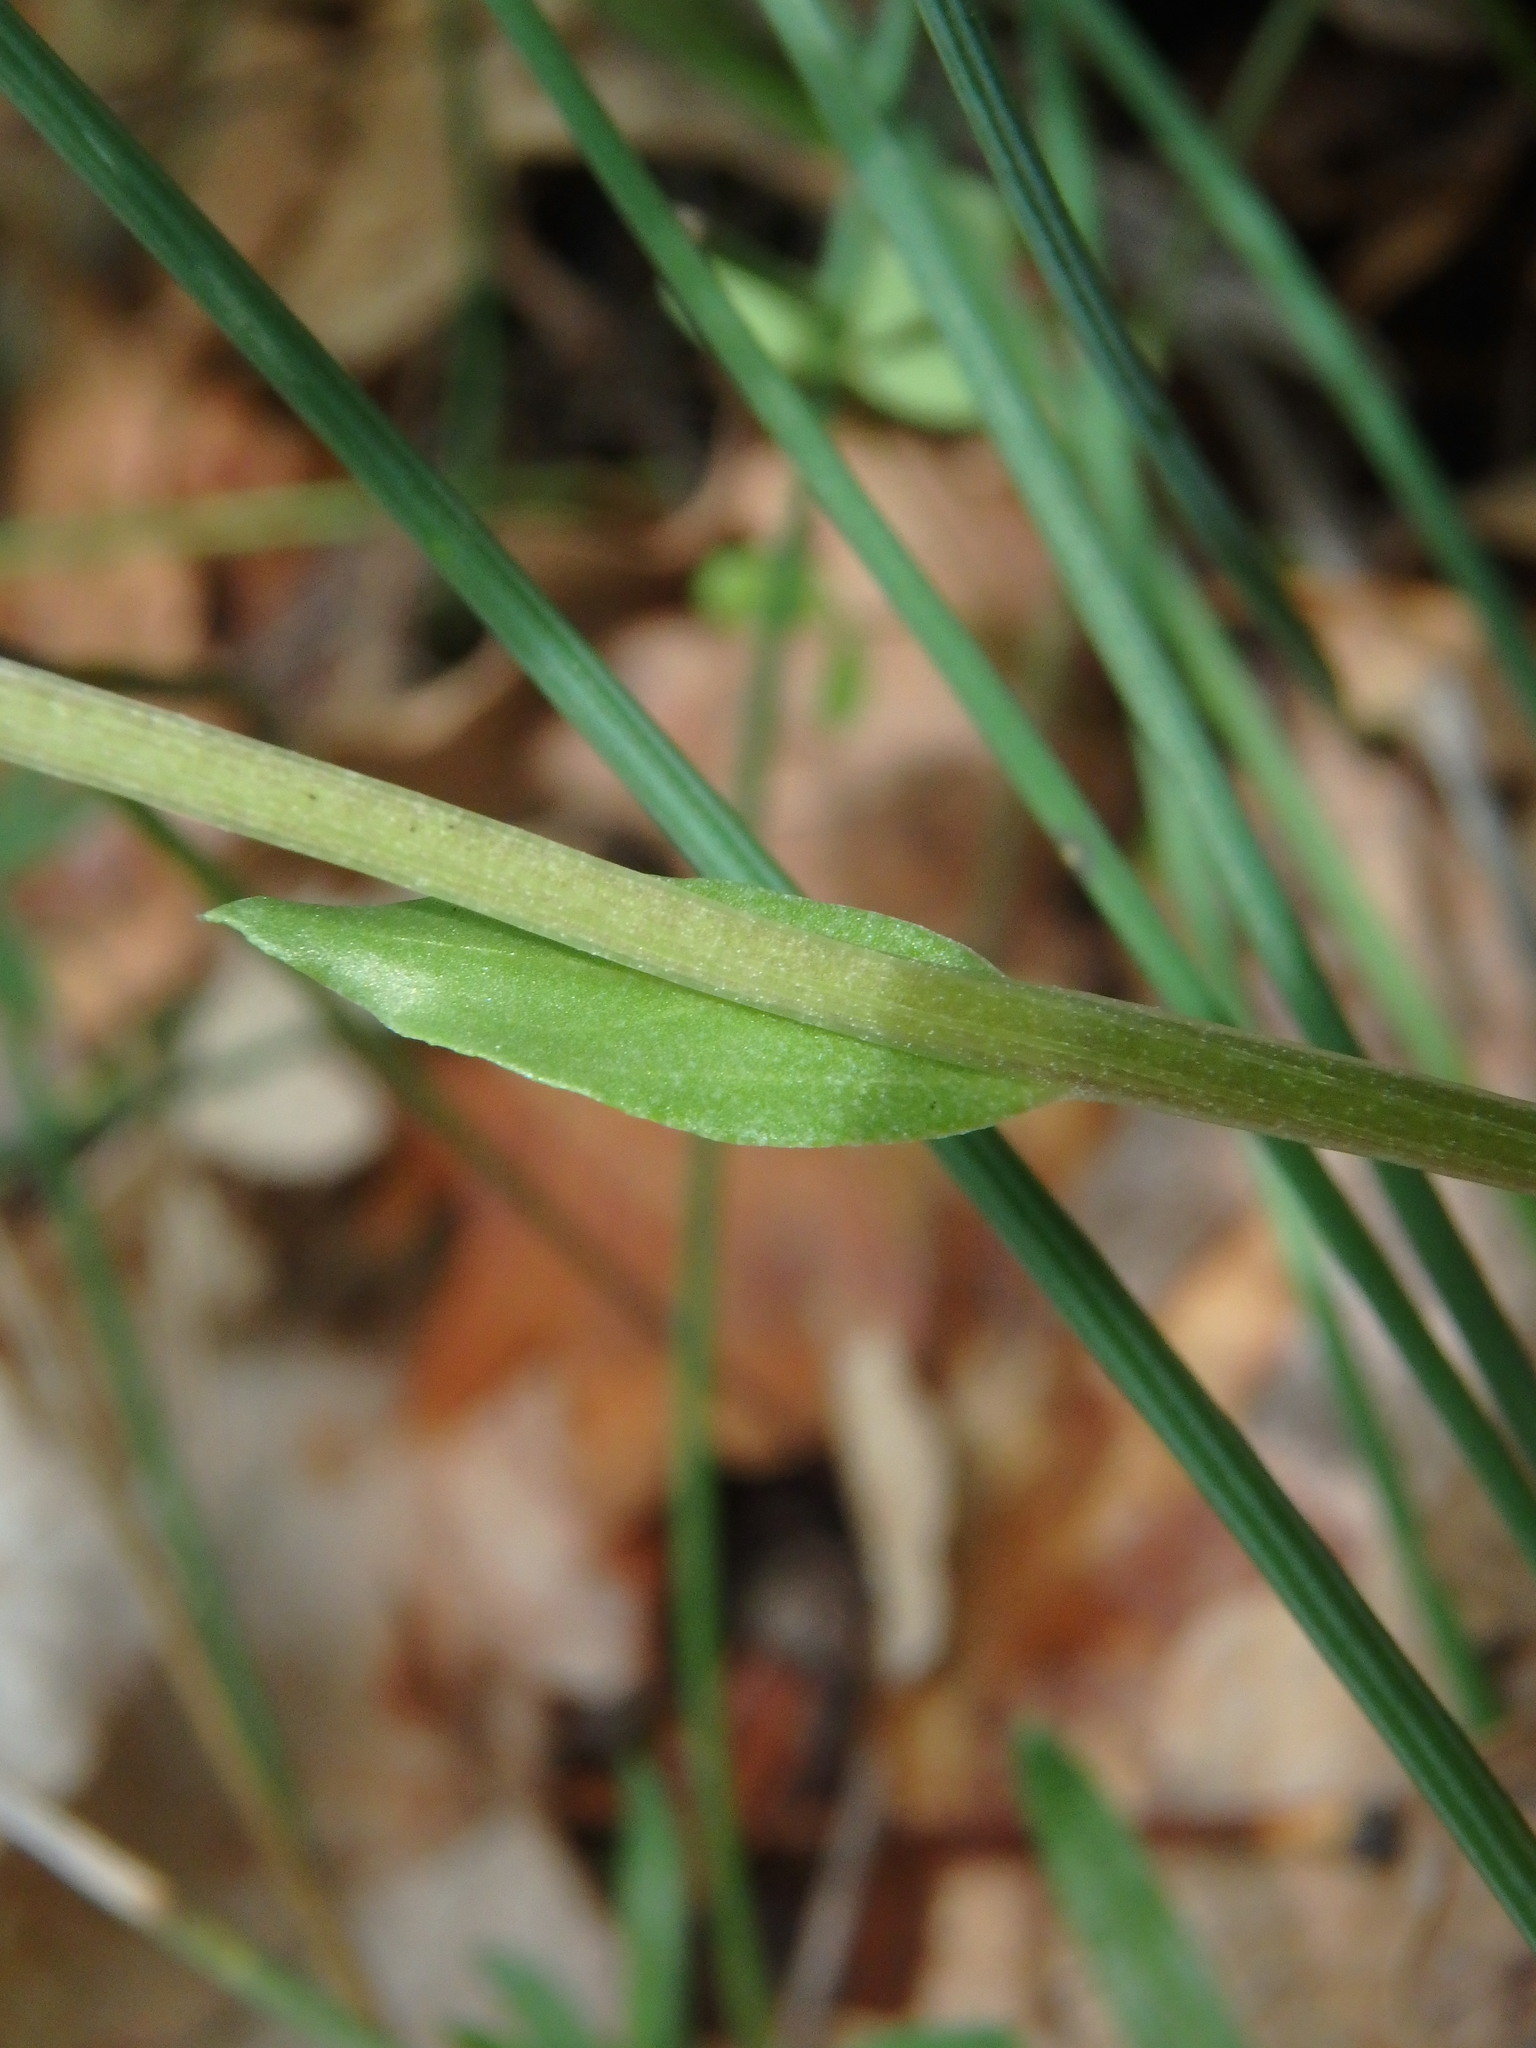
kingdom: Plantae
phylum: Tracheophyta
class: Magnoliopsida
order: Lamiales
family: Plantaginaceae
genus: Globularia
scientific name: Globularia bisnagarica
